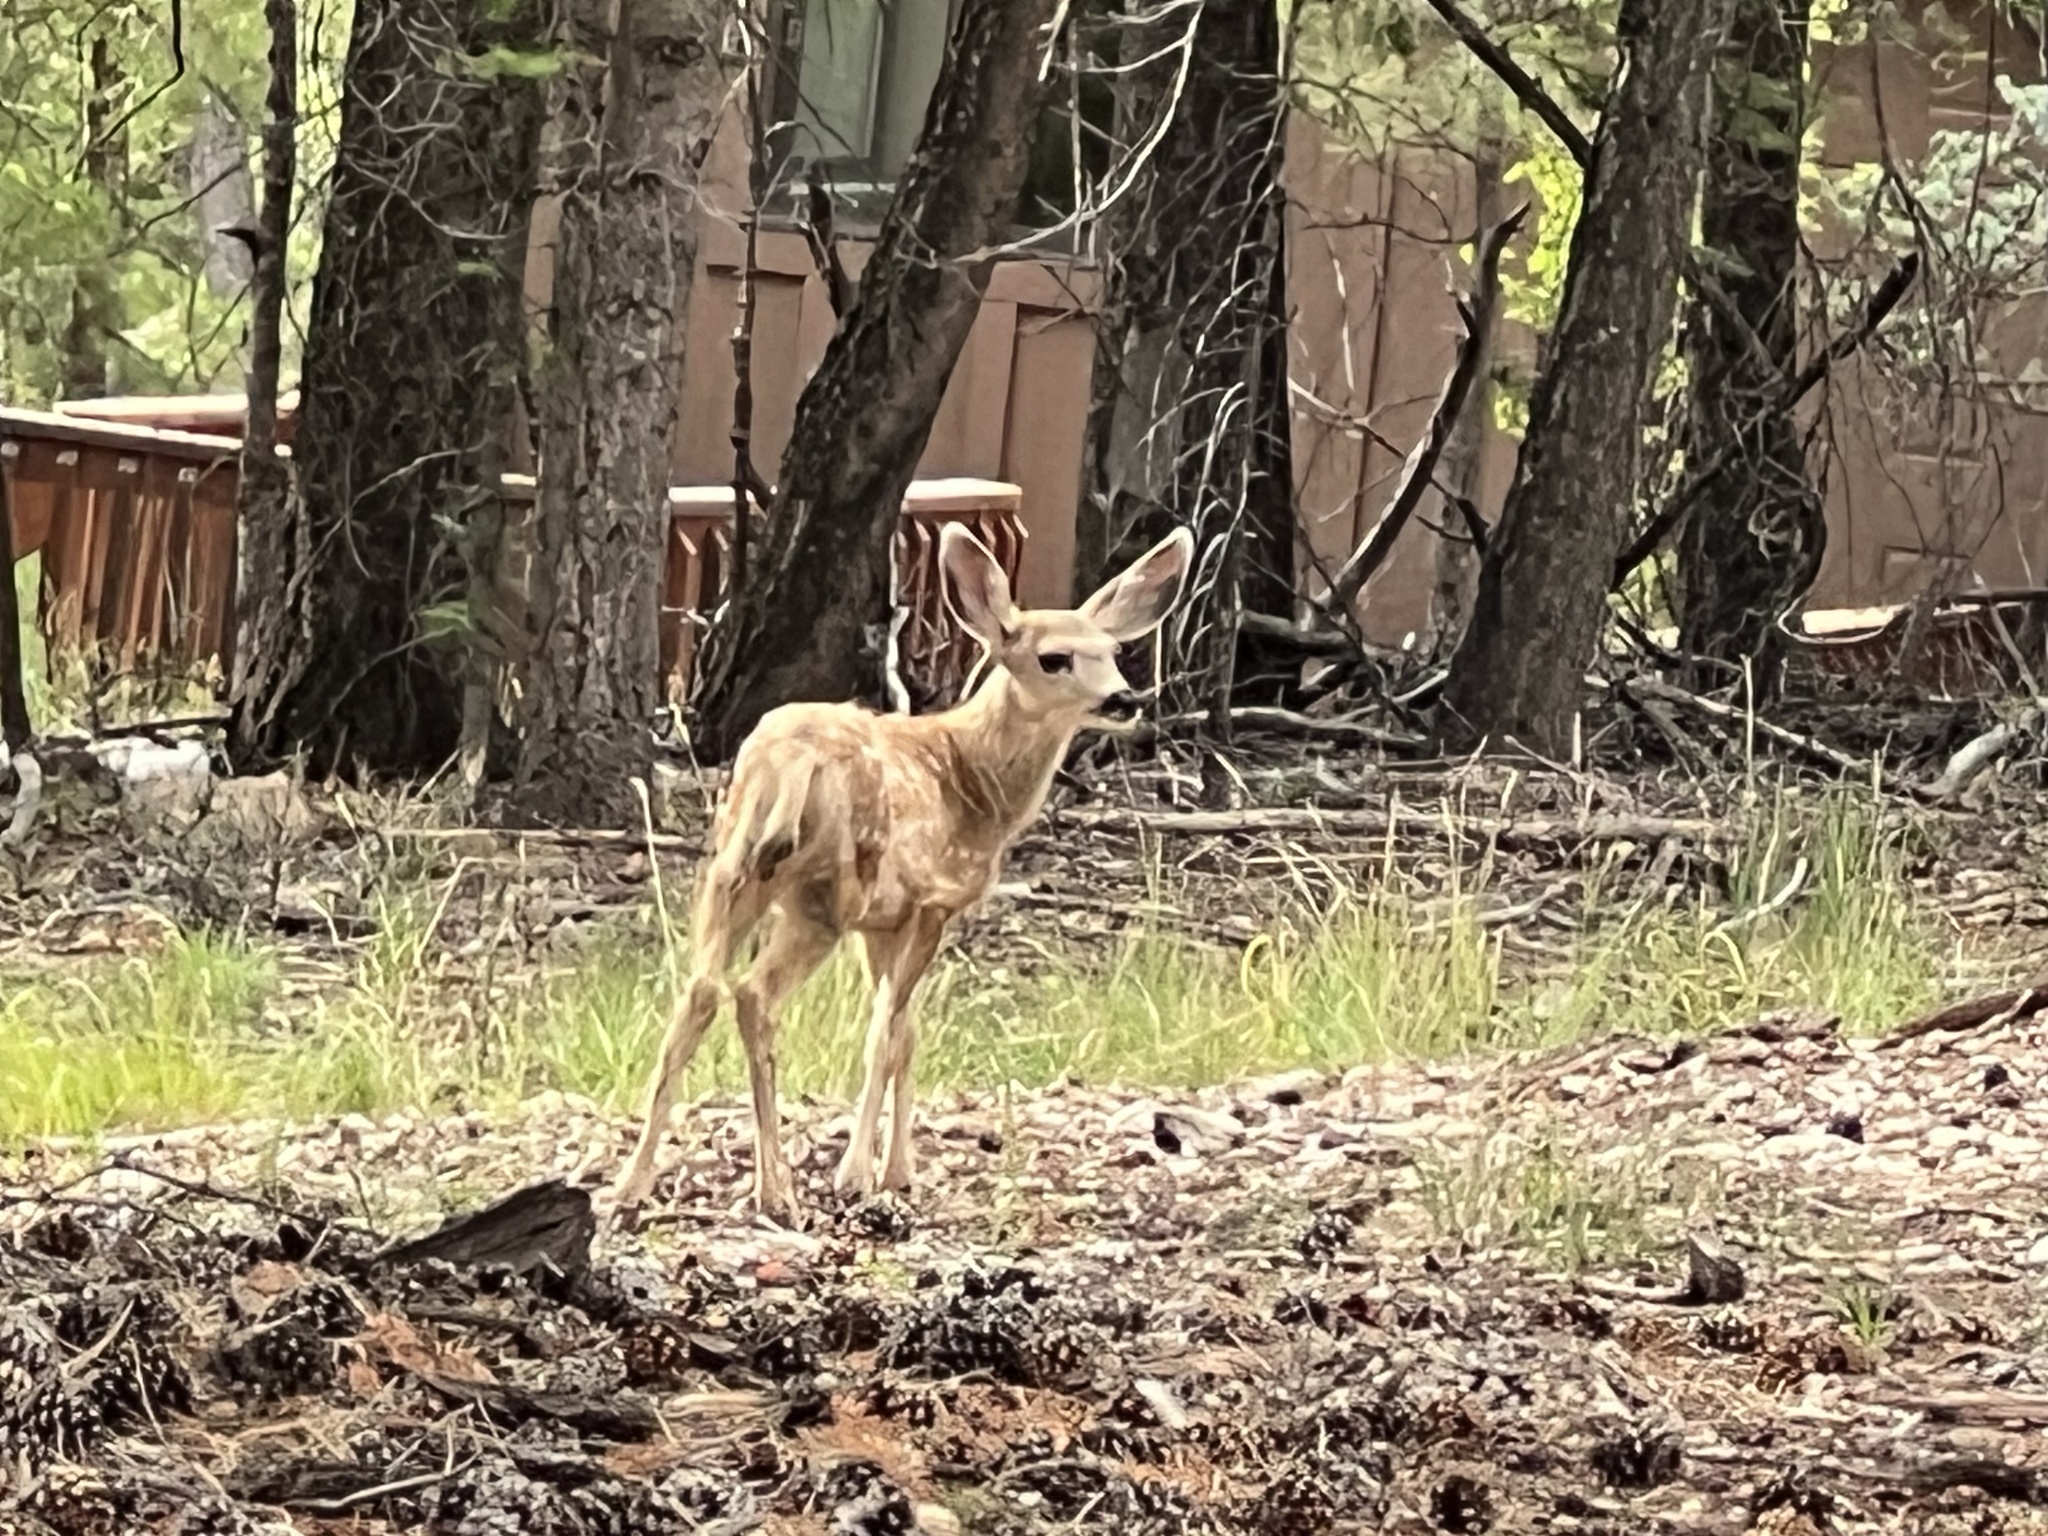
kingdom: Animalia
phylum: Chordata
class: Mammalia
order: Artiodactyla
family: Cervidae
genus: Odocoileus
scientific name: Odocoileus hemionus
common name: Mule deer
